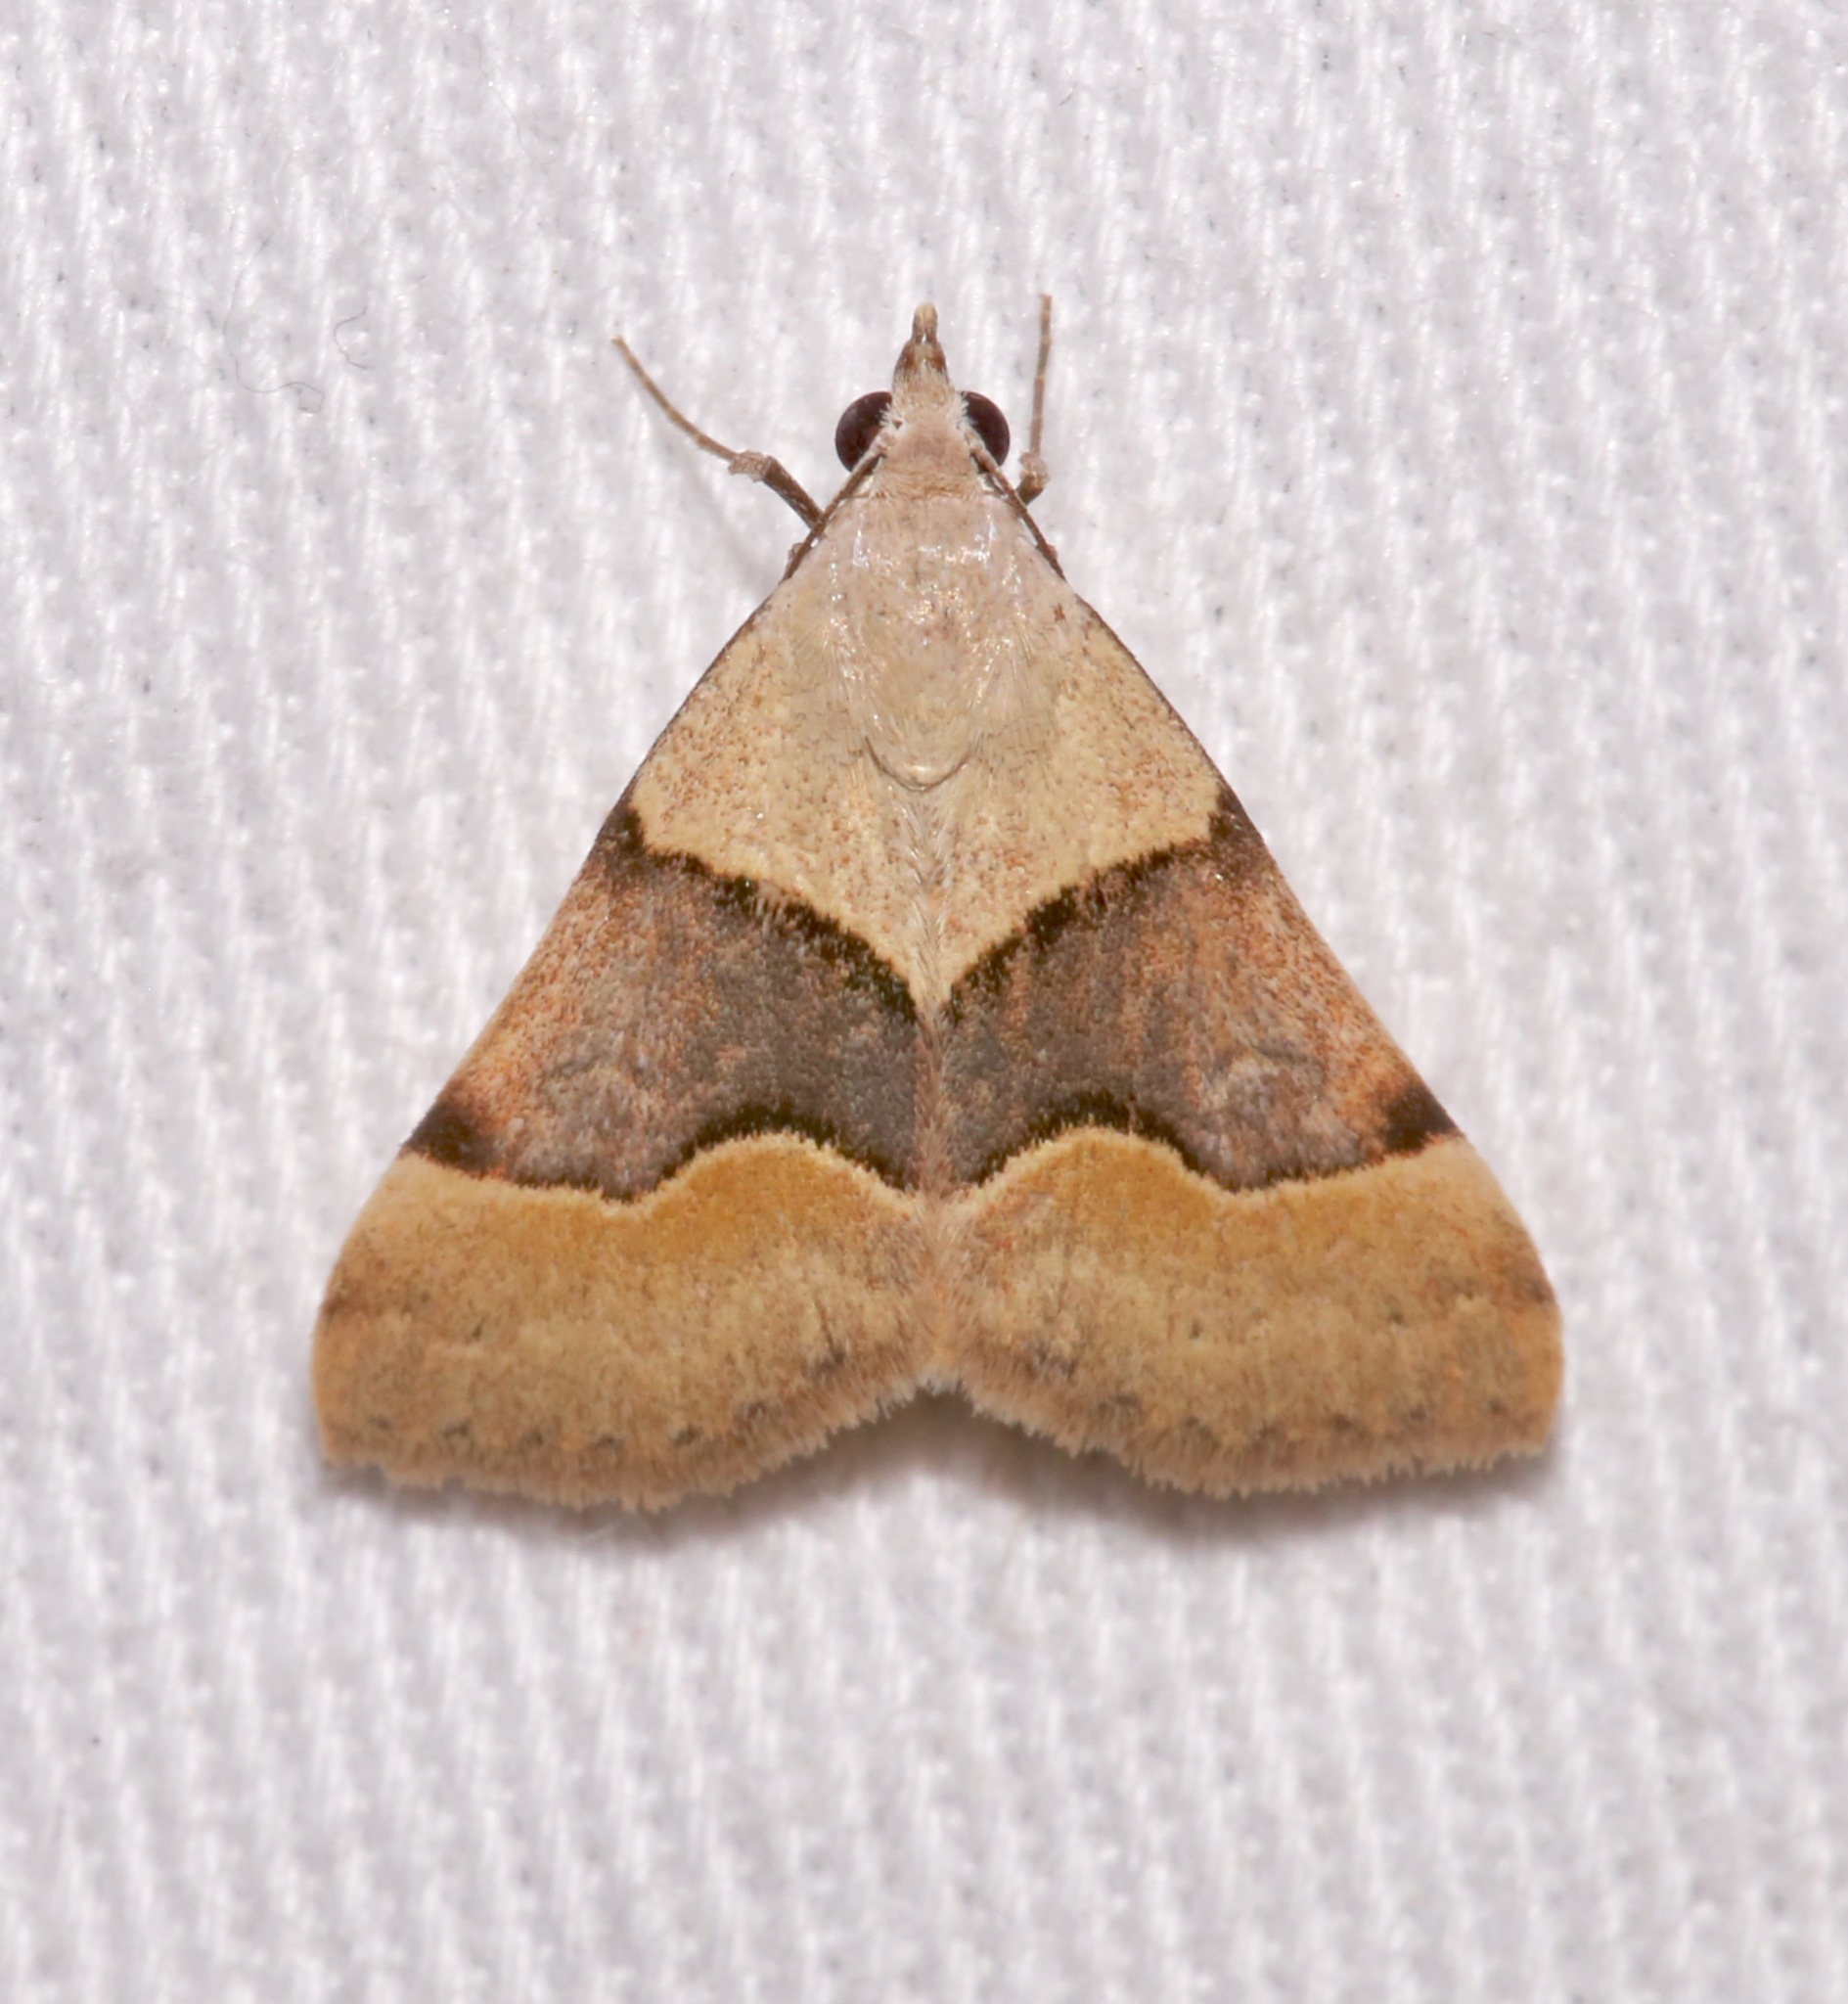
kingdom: Animalia
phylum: Arthropoda
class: Insecta
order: Lepidoptera
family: Erebidae
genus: Hemeroplanis
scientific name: Hemeroplanis incusalis
